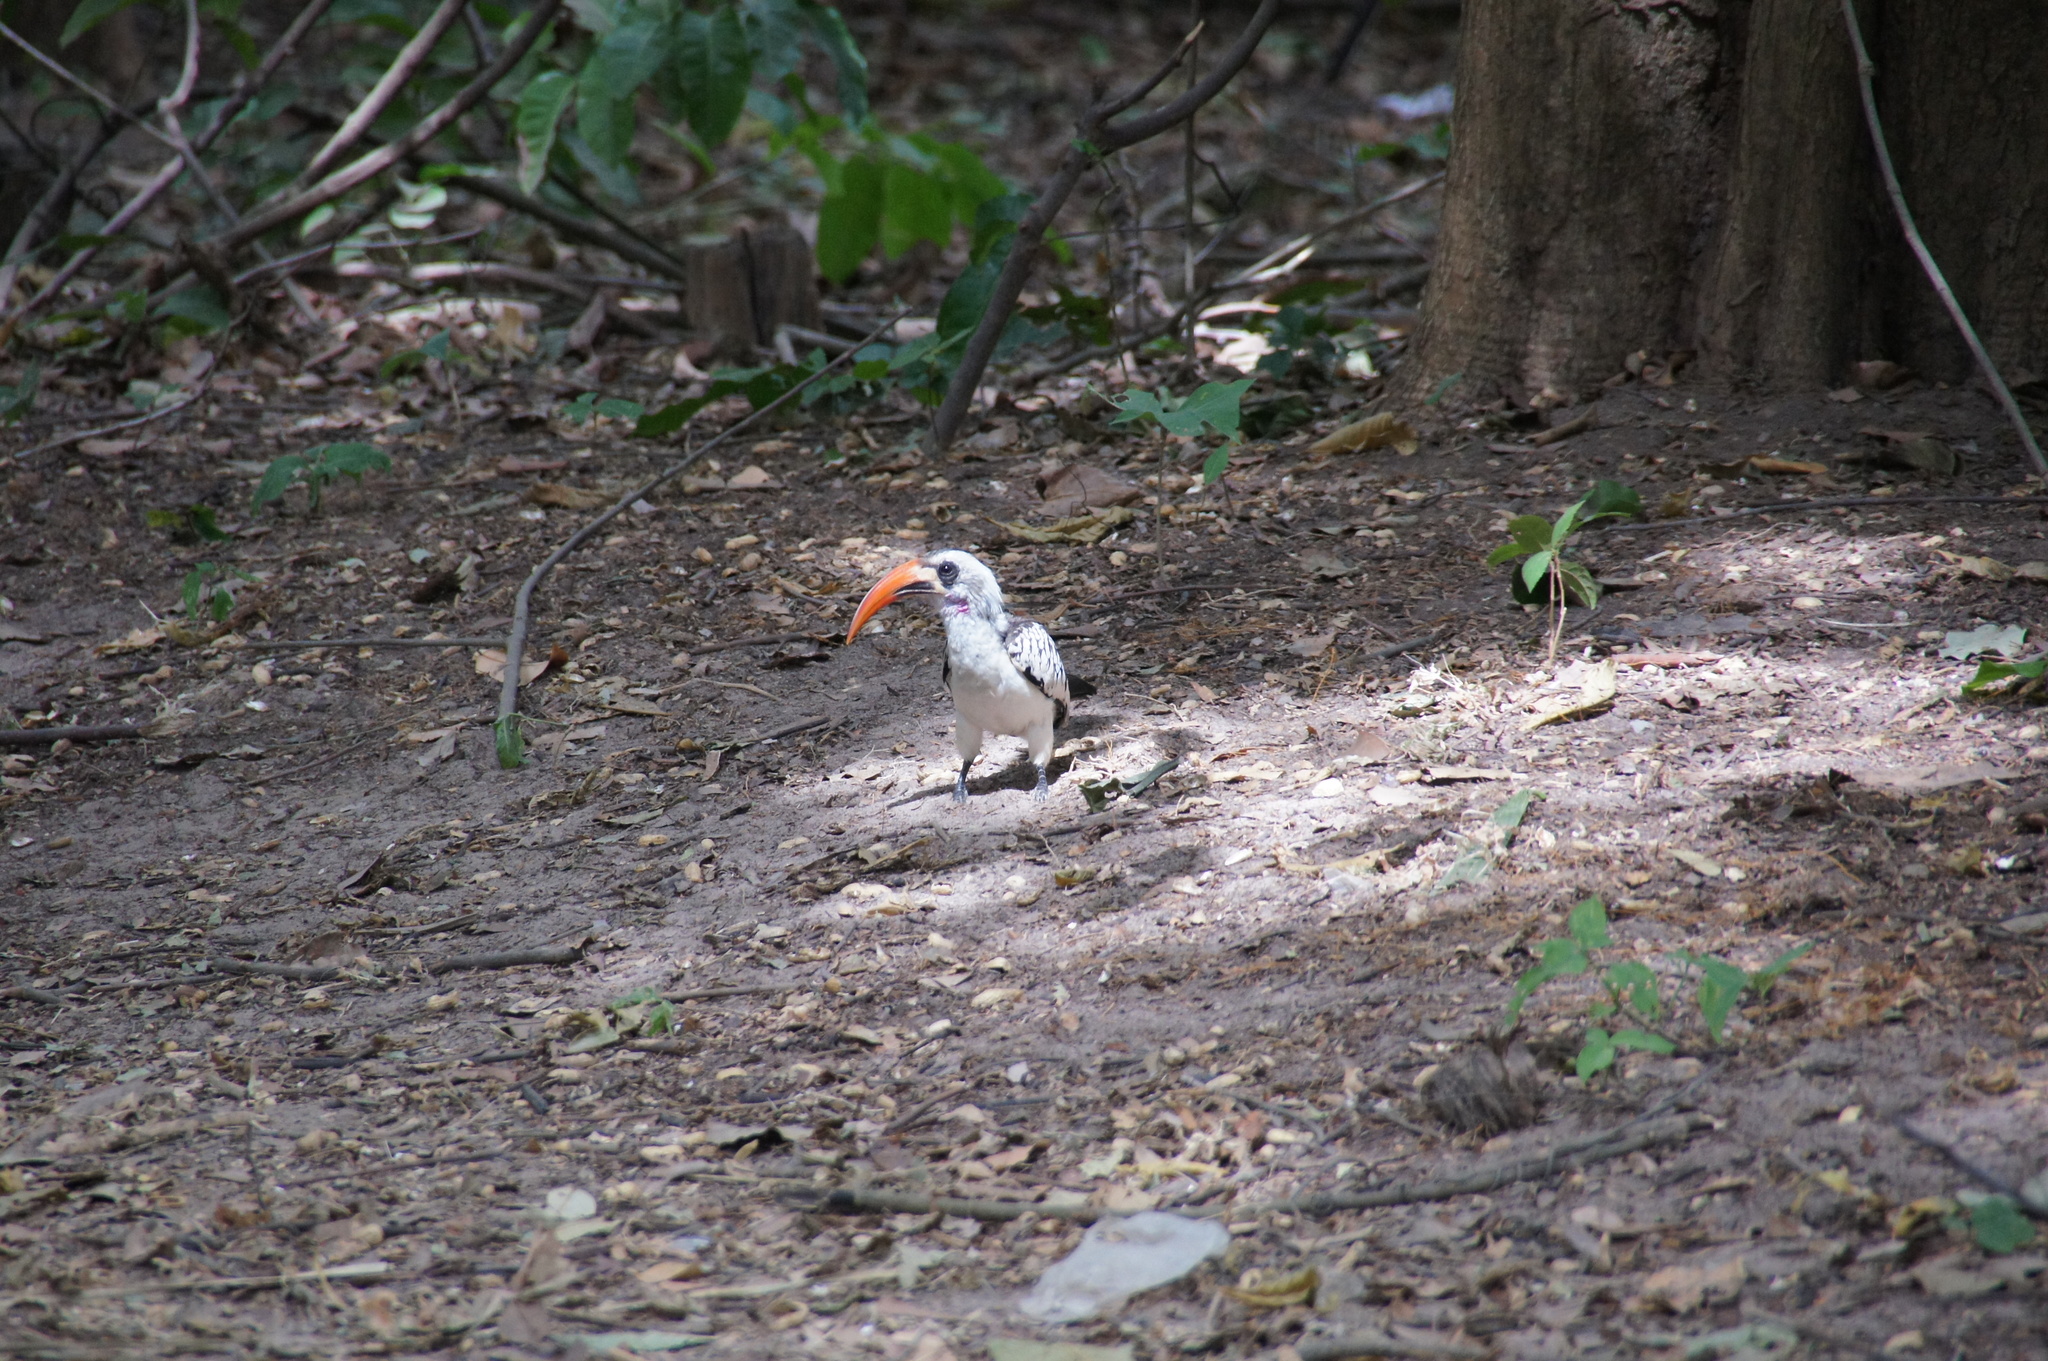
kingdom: Animalia
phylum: Chordata
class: Aves
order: Bucerotiformes
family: Bucerotidae
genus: Tockus
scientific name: Tockus kempi
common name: Western red-billed hornbill
